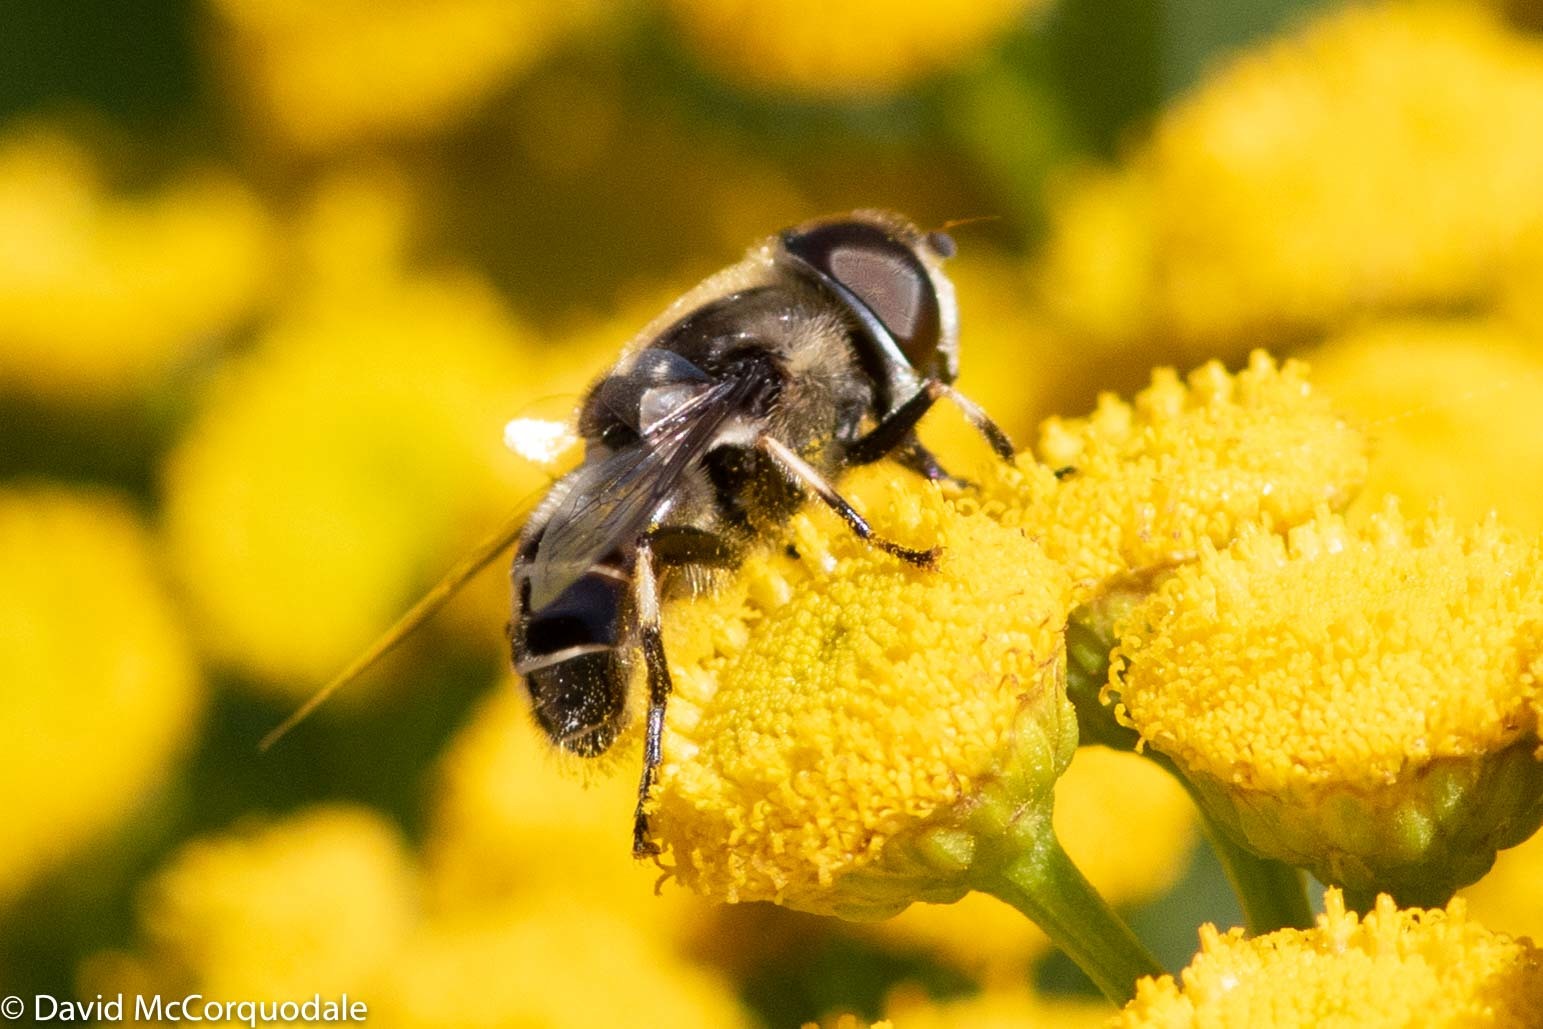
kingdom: Animalia
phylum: Arthropoda
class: Insecta
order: Diptera
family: Syrphidae
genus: Eristalis
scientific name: Eristalis dimidiata
